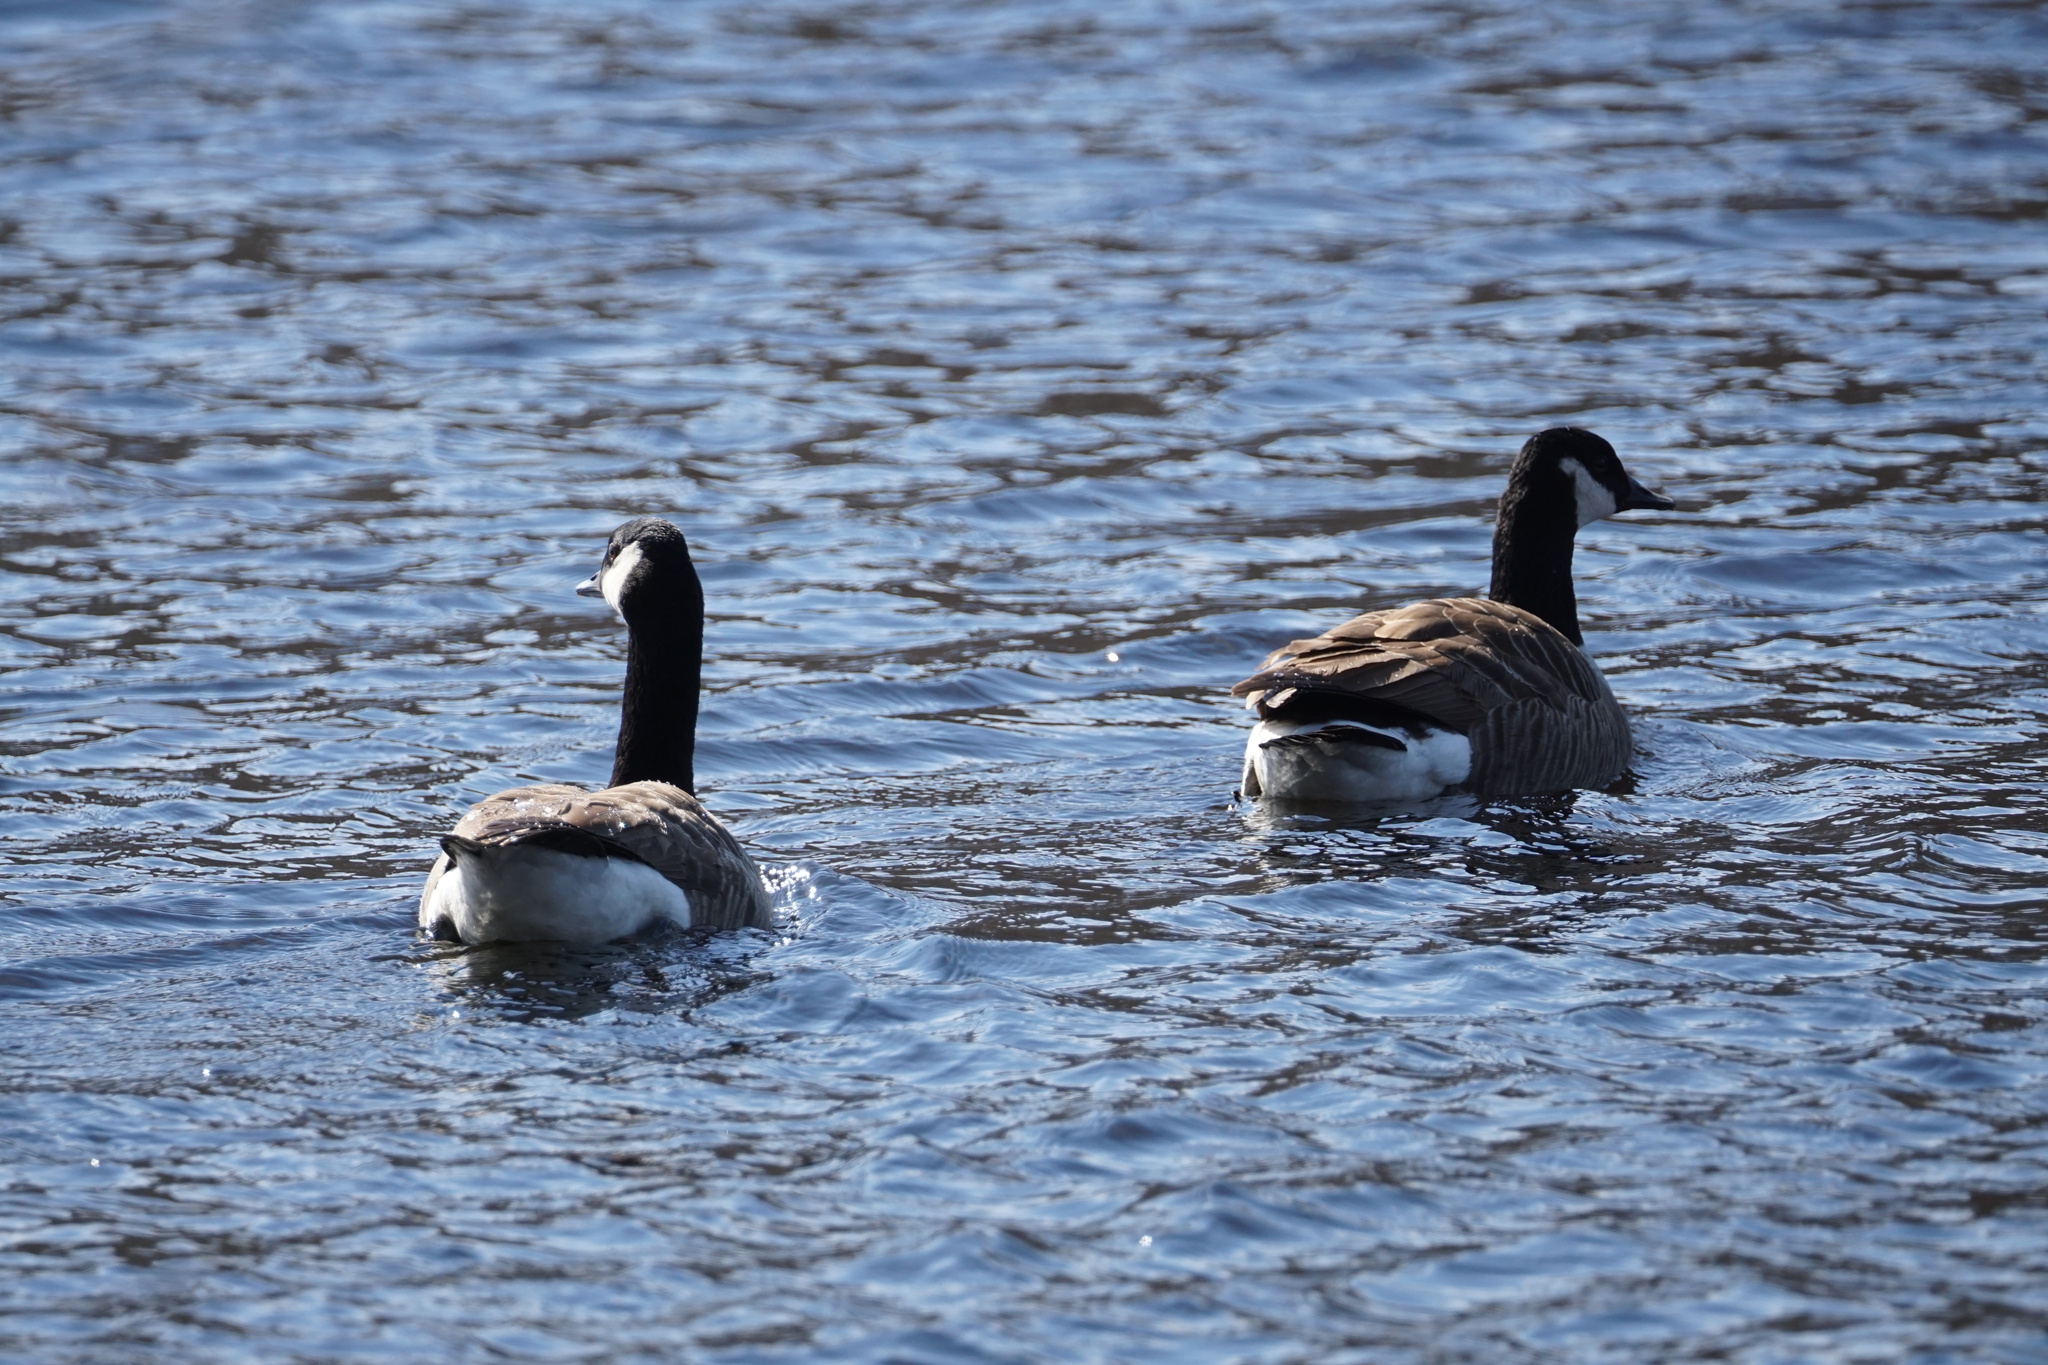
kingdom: Animalia
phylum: Chordata
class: Aves
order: Anseriformes
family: Anatidae
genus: Branta
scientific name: Branta canadensis
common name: Canada goose
